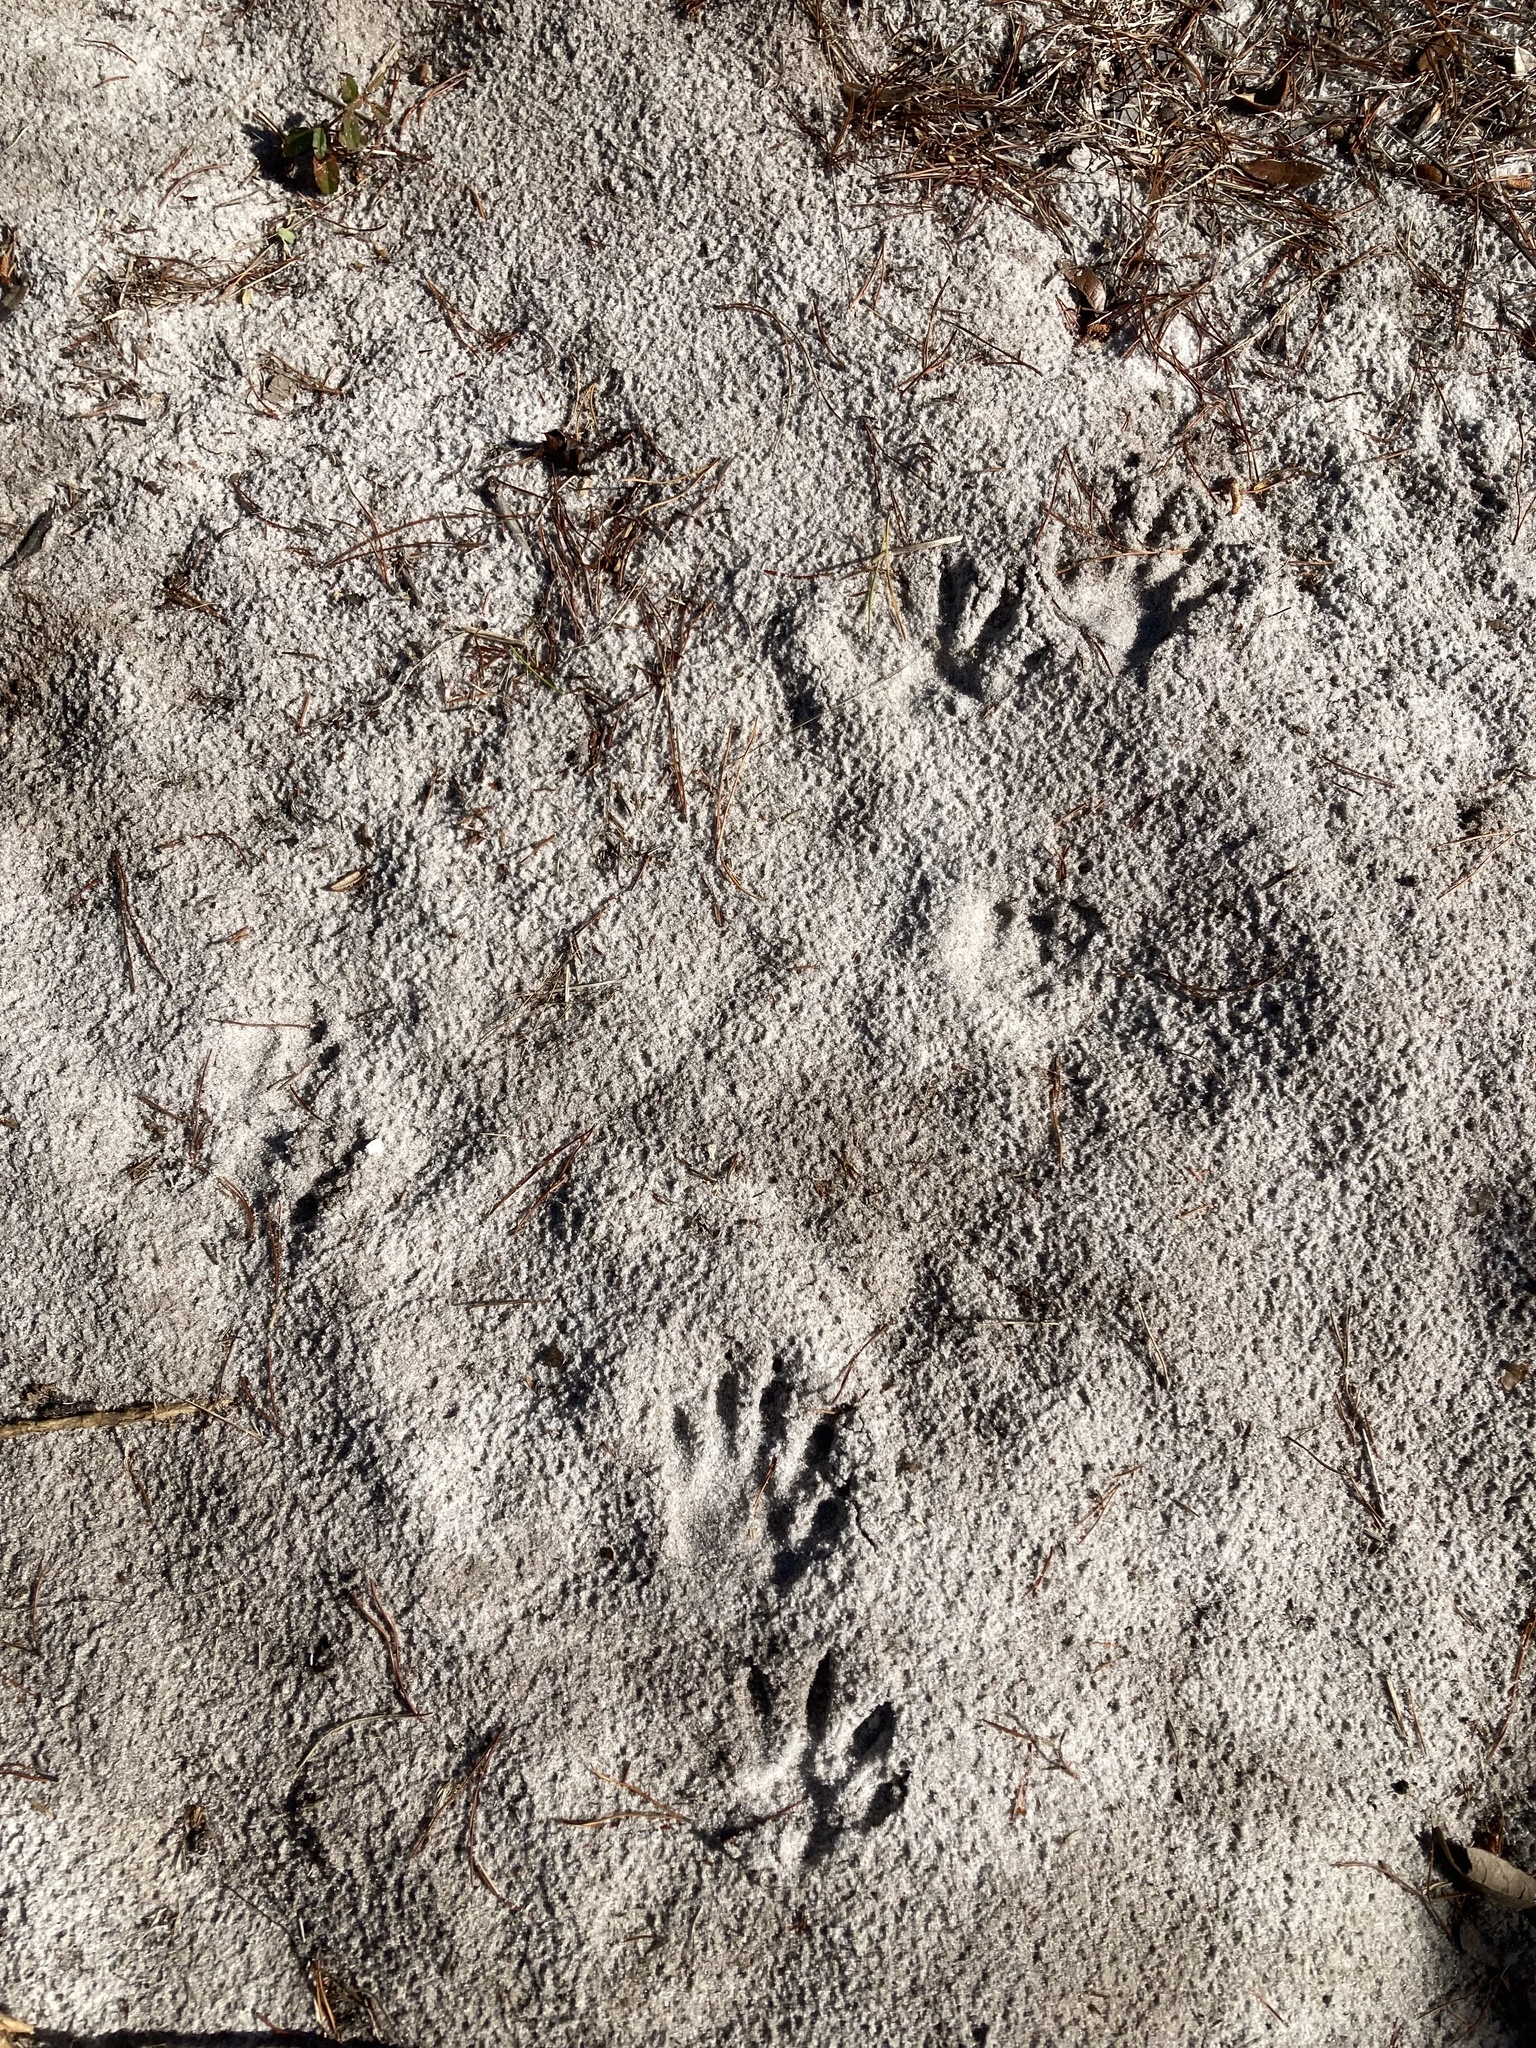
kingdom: Animalia
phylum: Chordata
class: Mammalia
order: Carnivora
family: Procyonidae
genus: Procyon
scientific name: Procyon lotor
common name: Raccoon
